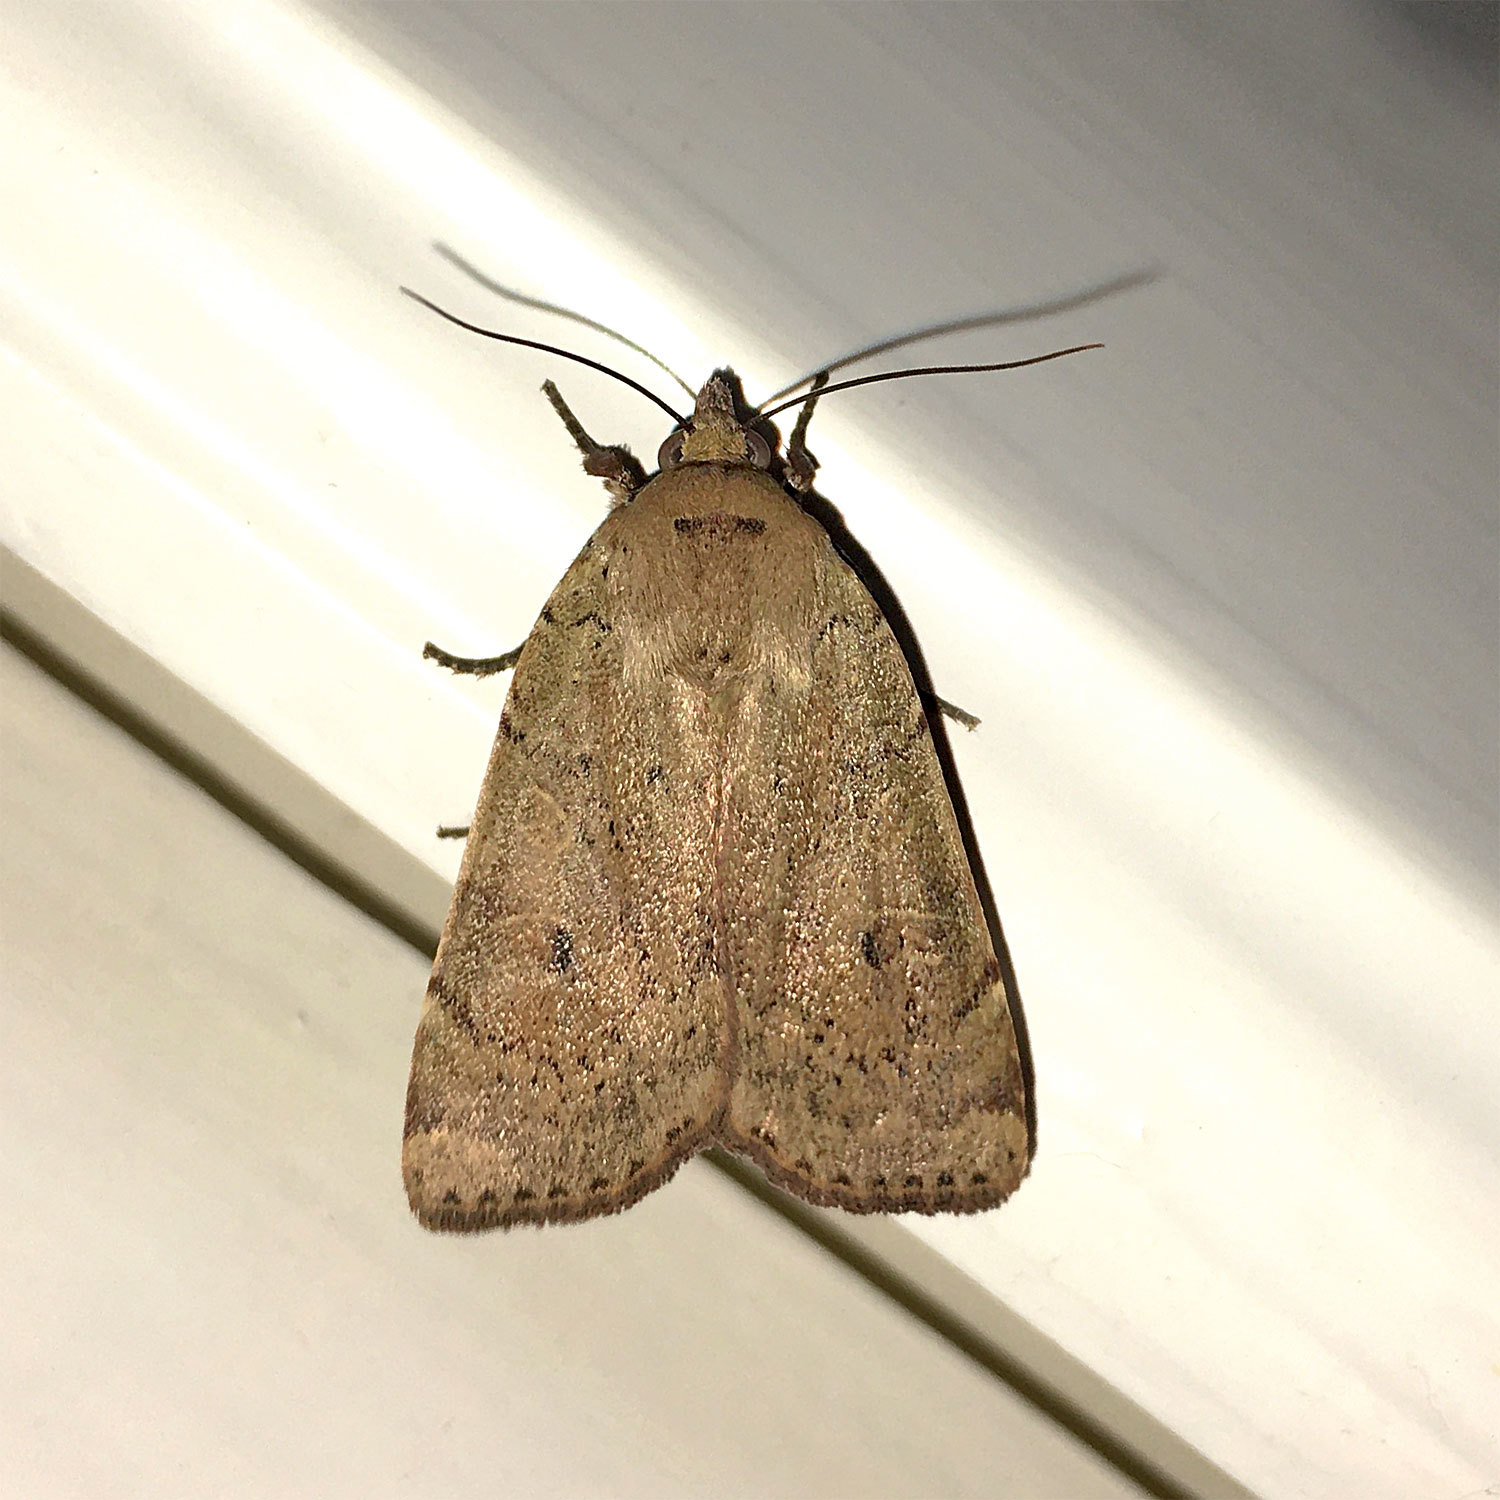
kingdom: Animalia
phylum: Arthropoda
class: Insecta
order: Lepidoptera
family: Noctuidae
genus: Noctua
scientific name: Noctua comes
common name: Lesser yellow underwing
